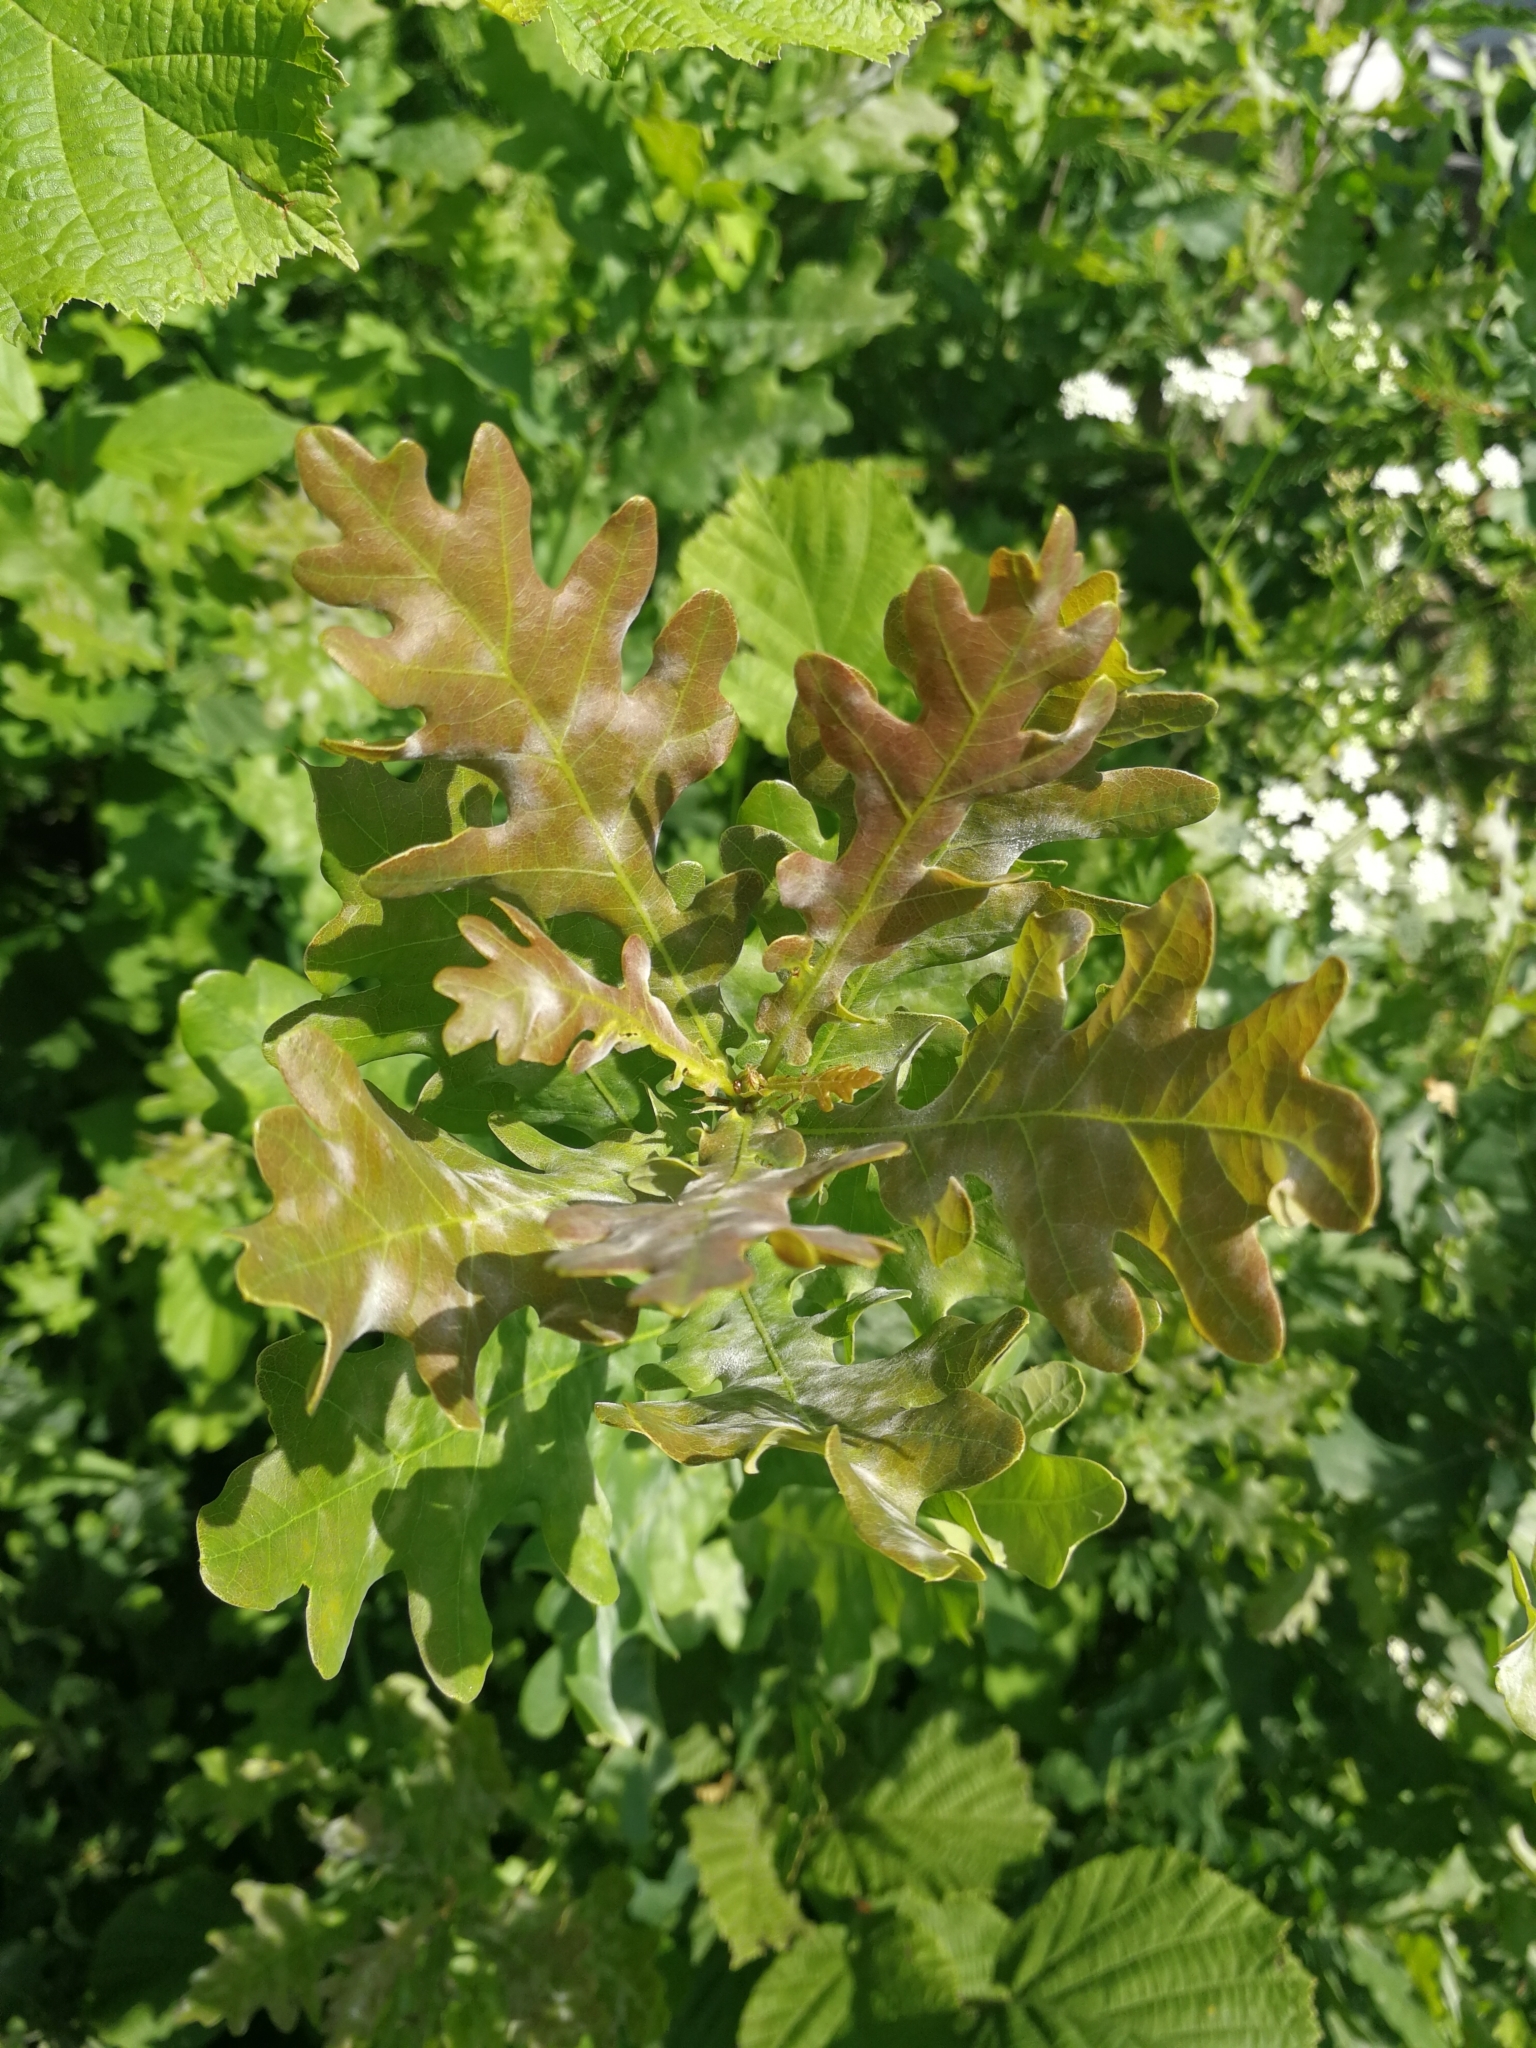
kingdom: Plantae
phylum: Tracheophyta
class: Magnoliopsida
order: Fagales
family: Fagaceae
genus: Quercus
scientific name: Quercus robur
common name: Pedunculate oak
